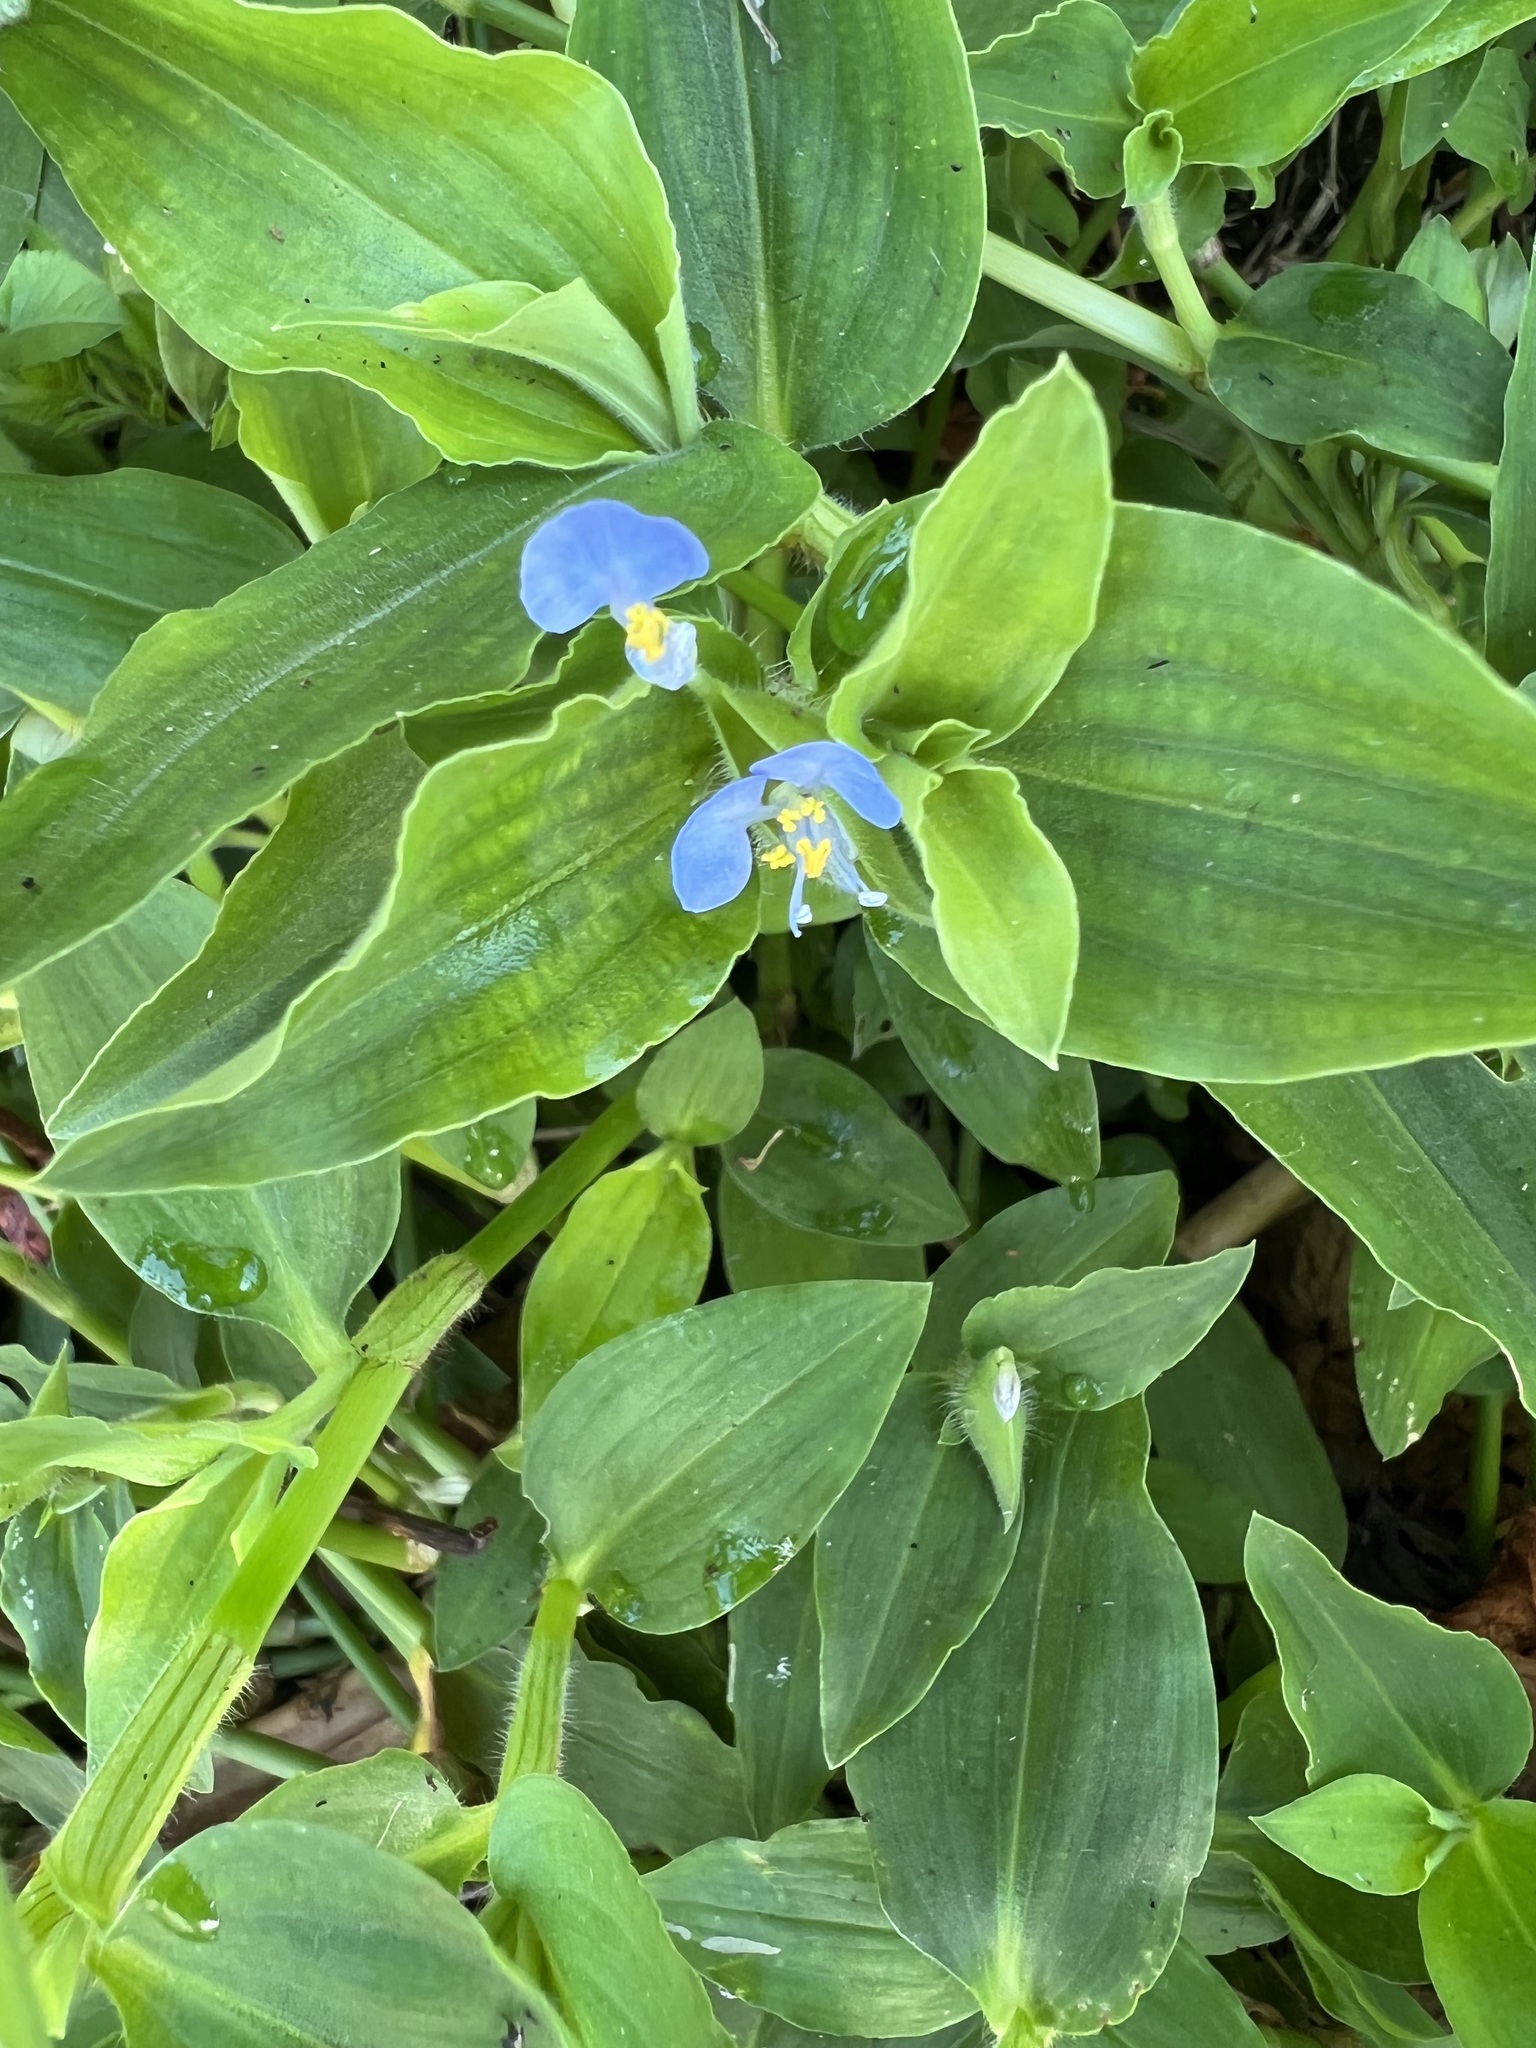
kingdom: Plantae
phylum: Tracheophyta
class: Liliopsida
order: Commelinales
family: Commelinaceae
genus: Commelina
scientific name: Commelina benghalensis
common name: Jio
